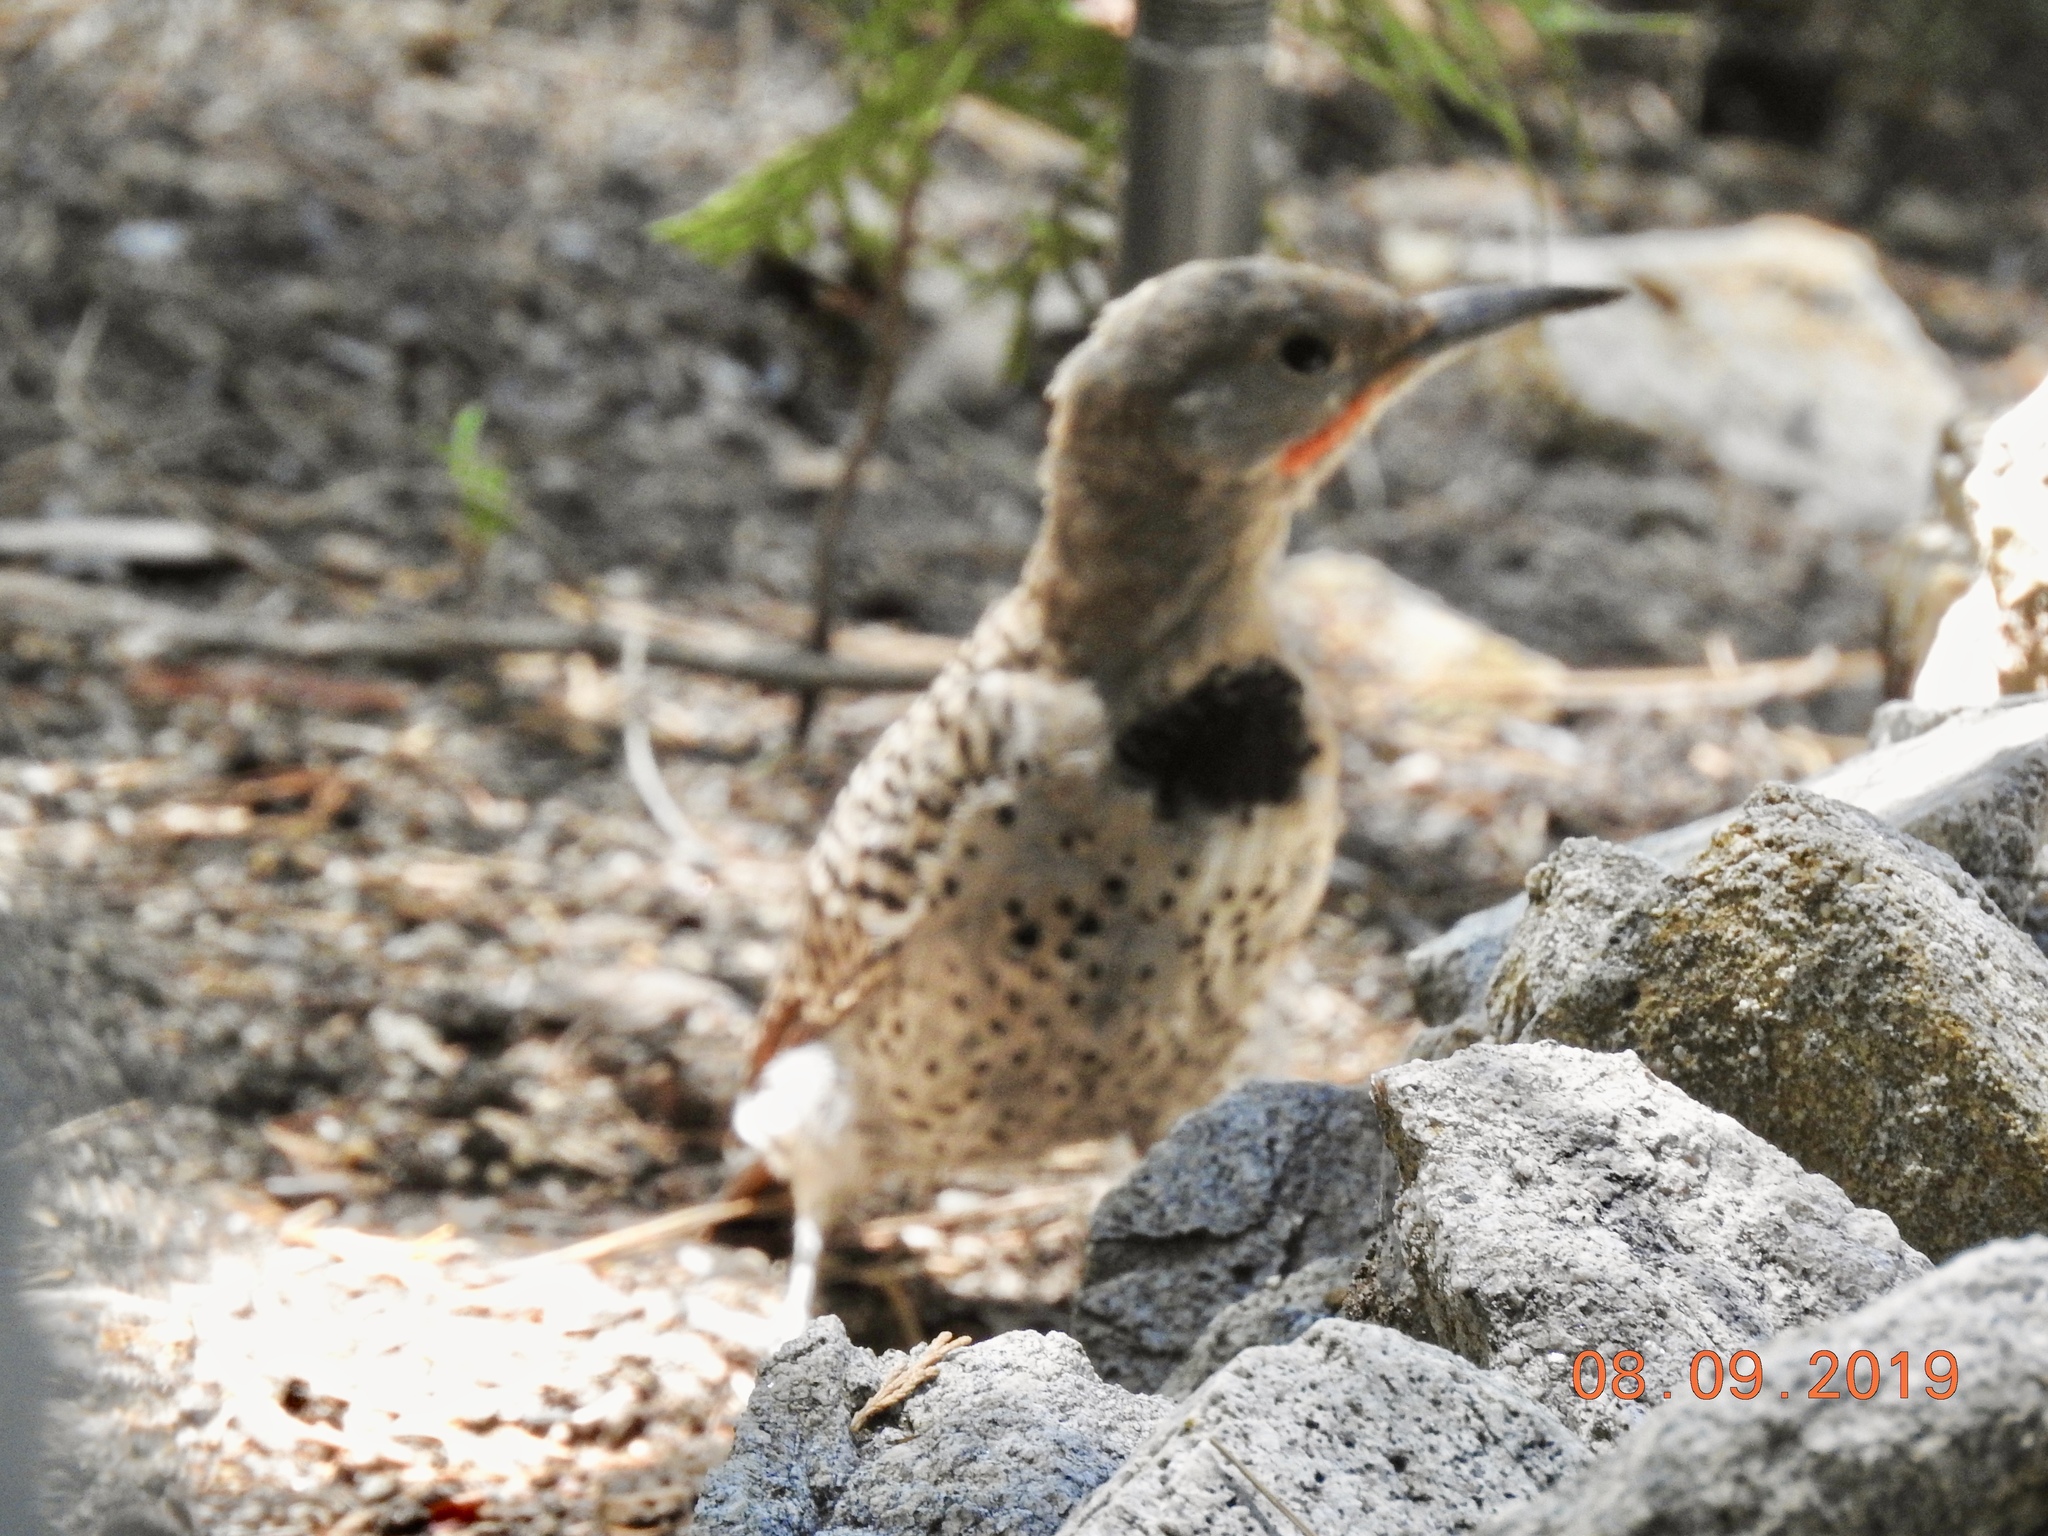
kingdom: Animalia
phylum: Chordata
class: Aves
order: Piciformes
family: Picidae
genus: Colaptes
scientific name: Colaptes auratus
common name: Northern flicker
